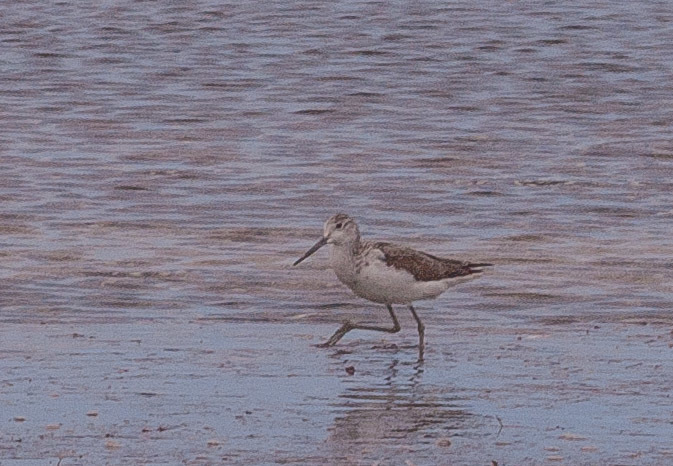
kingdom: Animalia
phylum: Chordata
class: Aves
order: Charadriiformes
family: Scolopacidae
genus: Tringa
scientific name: Tringa nebularia
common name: Common greenshank
